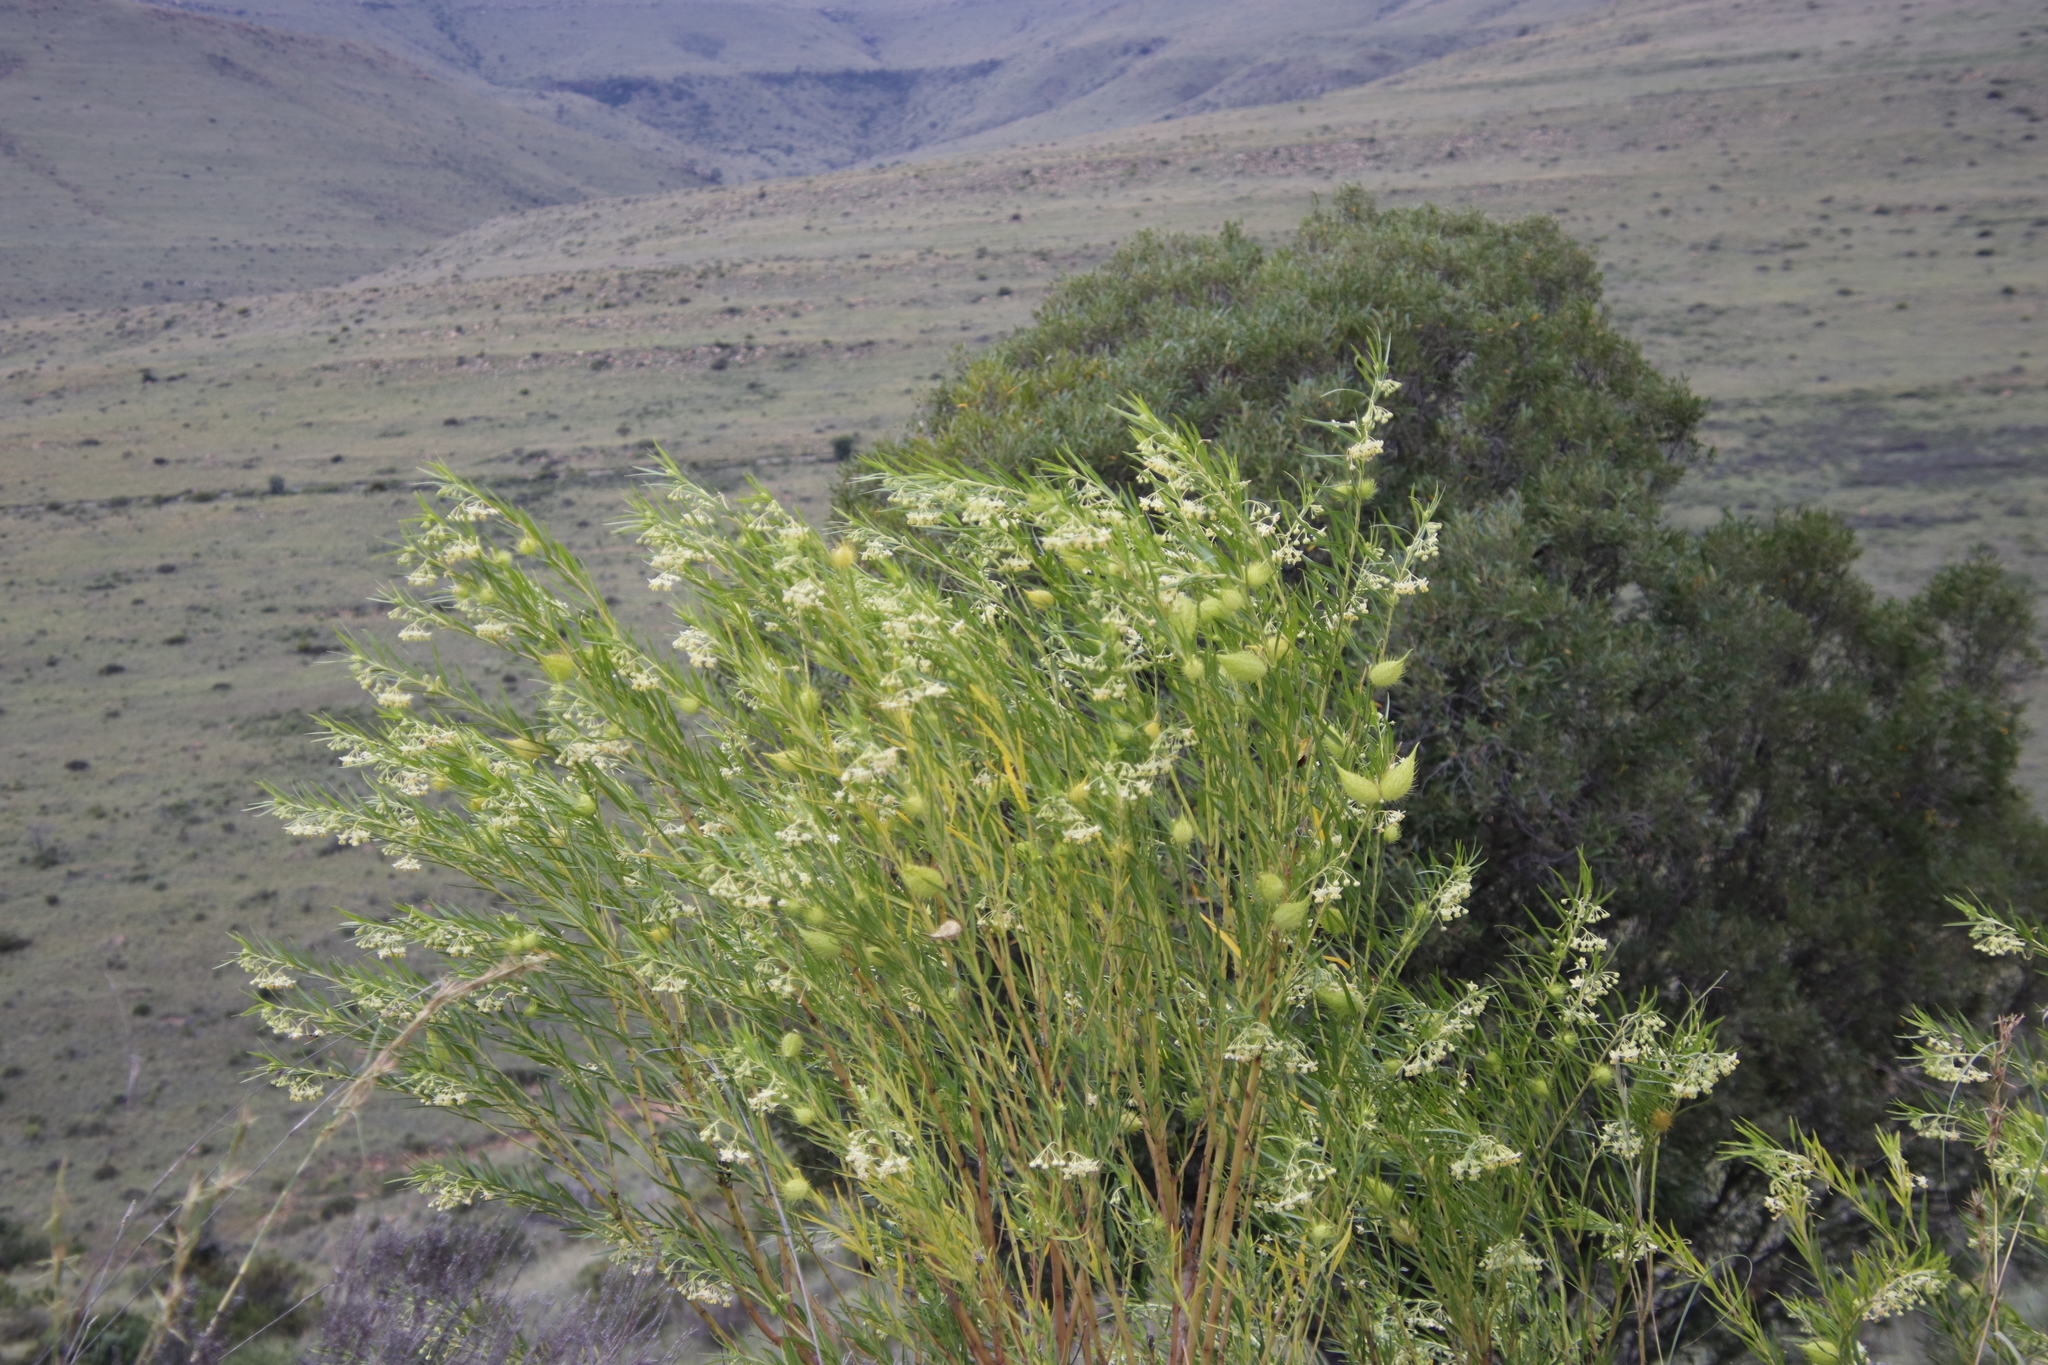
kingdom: Plantae
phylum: Tracheophyta
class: Magnoliopsida
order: Gentianales
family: Apocynaceae
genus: Gomphocarpus
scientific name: Gomphocarpus fruticosus
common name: Milkweed
